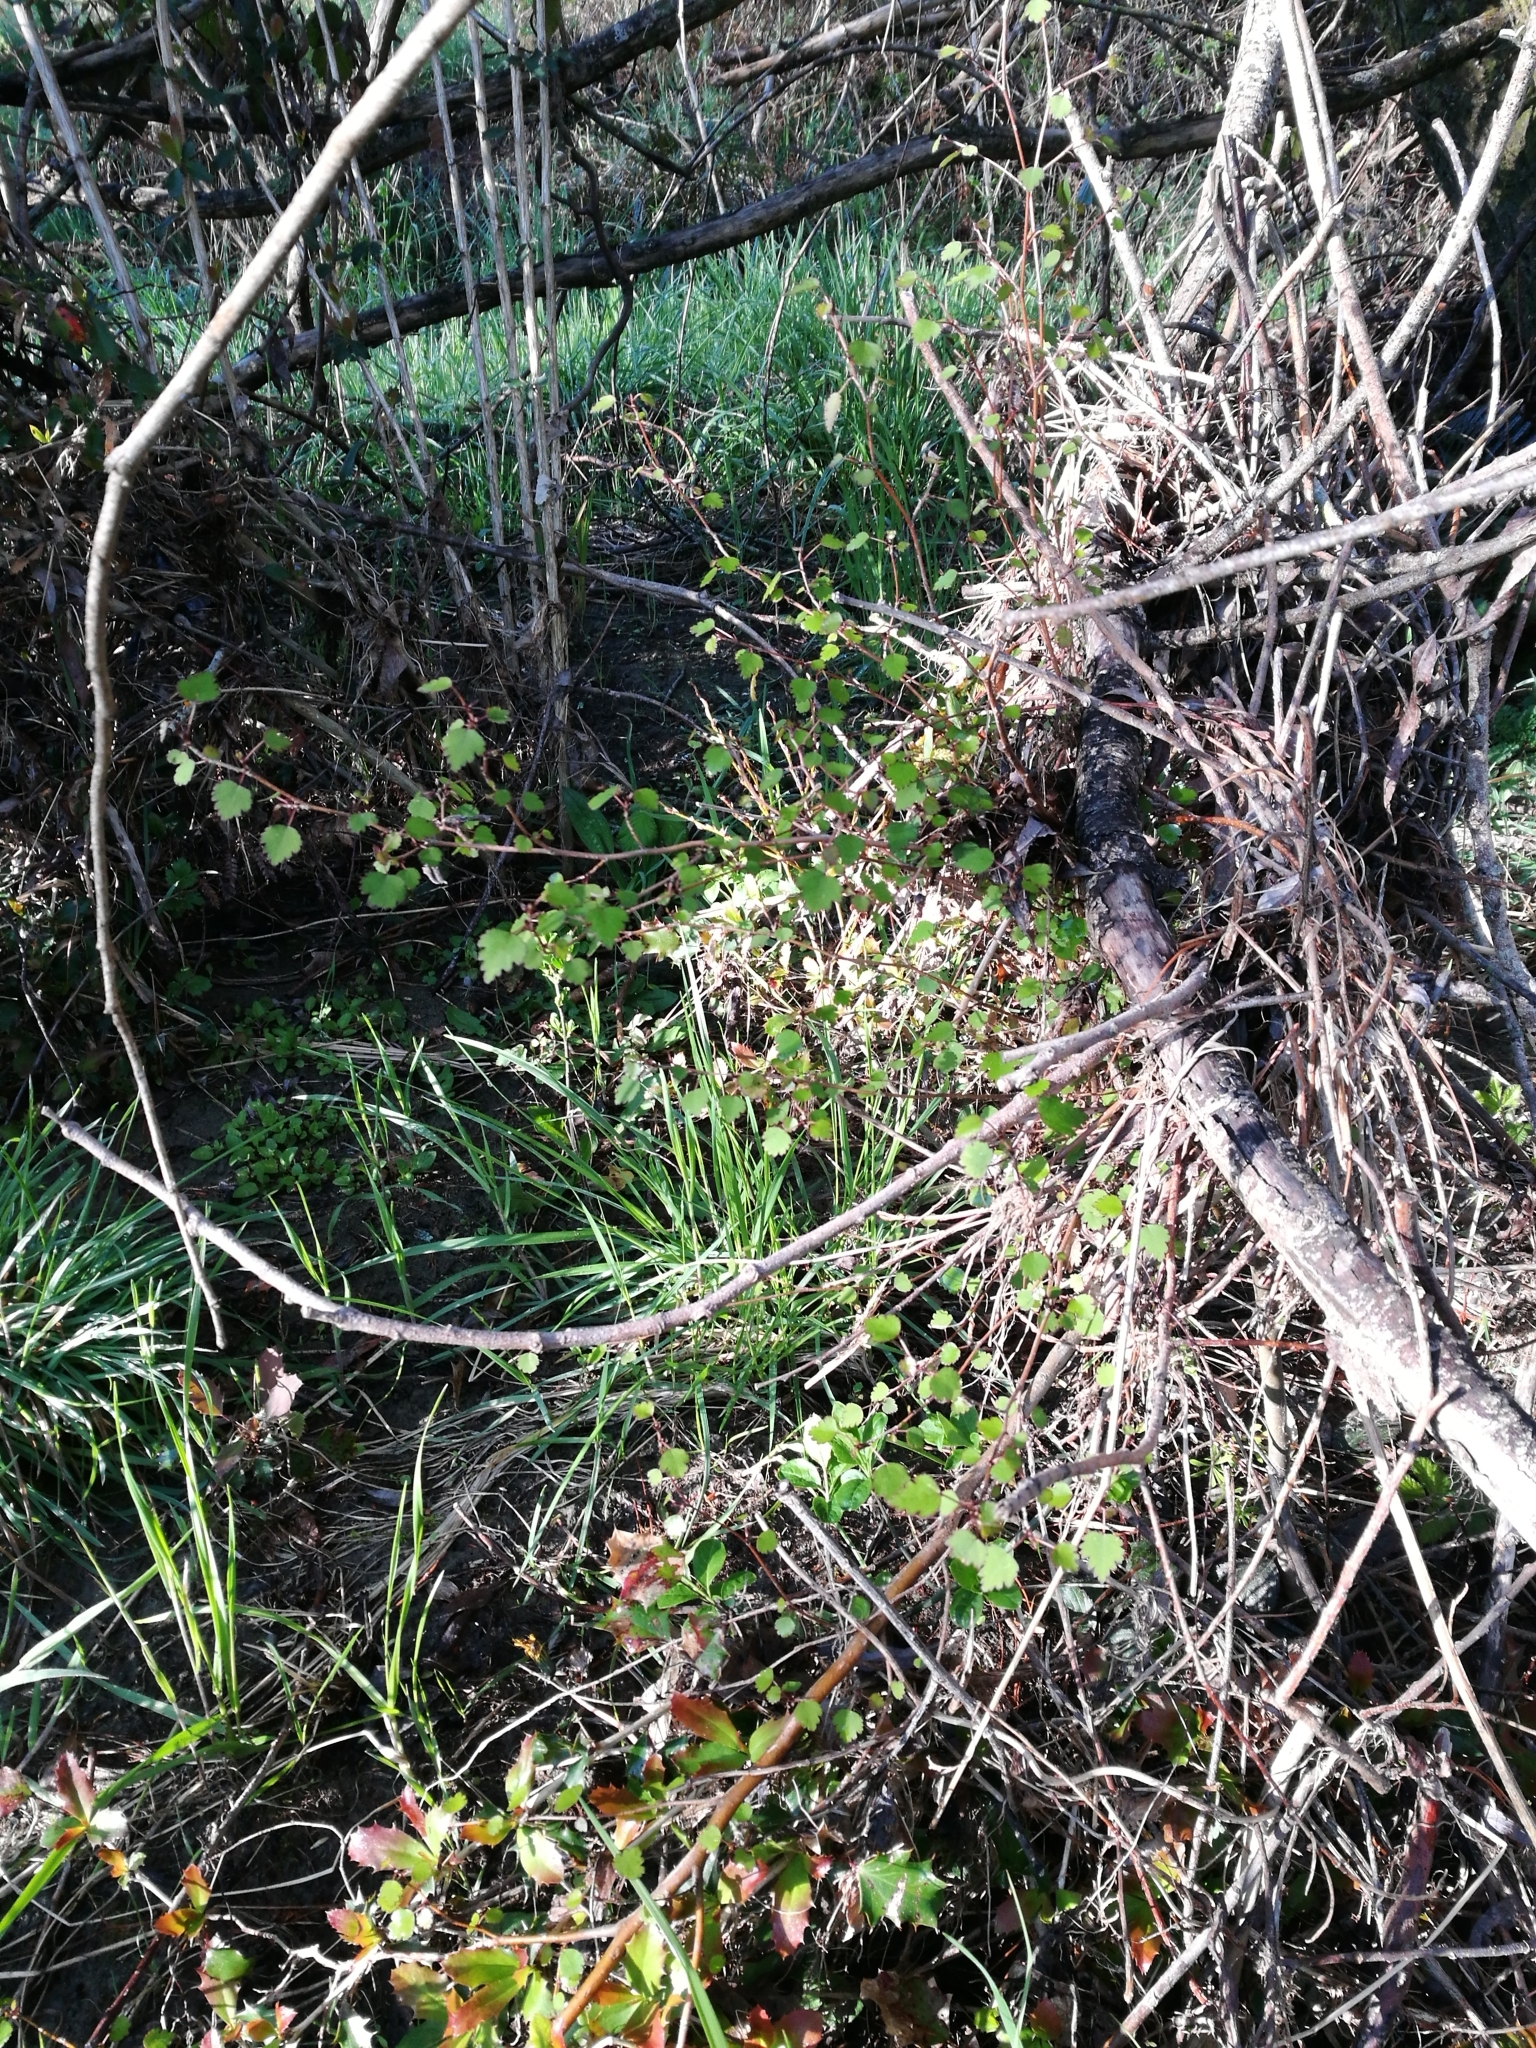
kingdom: Plantae
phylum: Tracheophyta
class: Magnoliopsida
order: Malvales
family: Malvaceae
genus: Plagianthus
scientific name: Plagianthus regius
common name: Manatu
